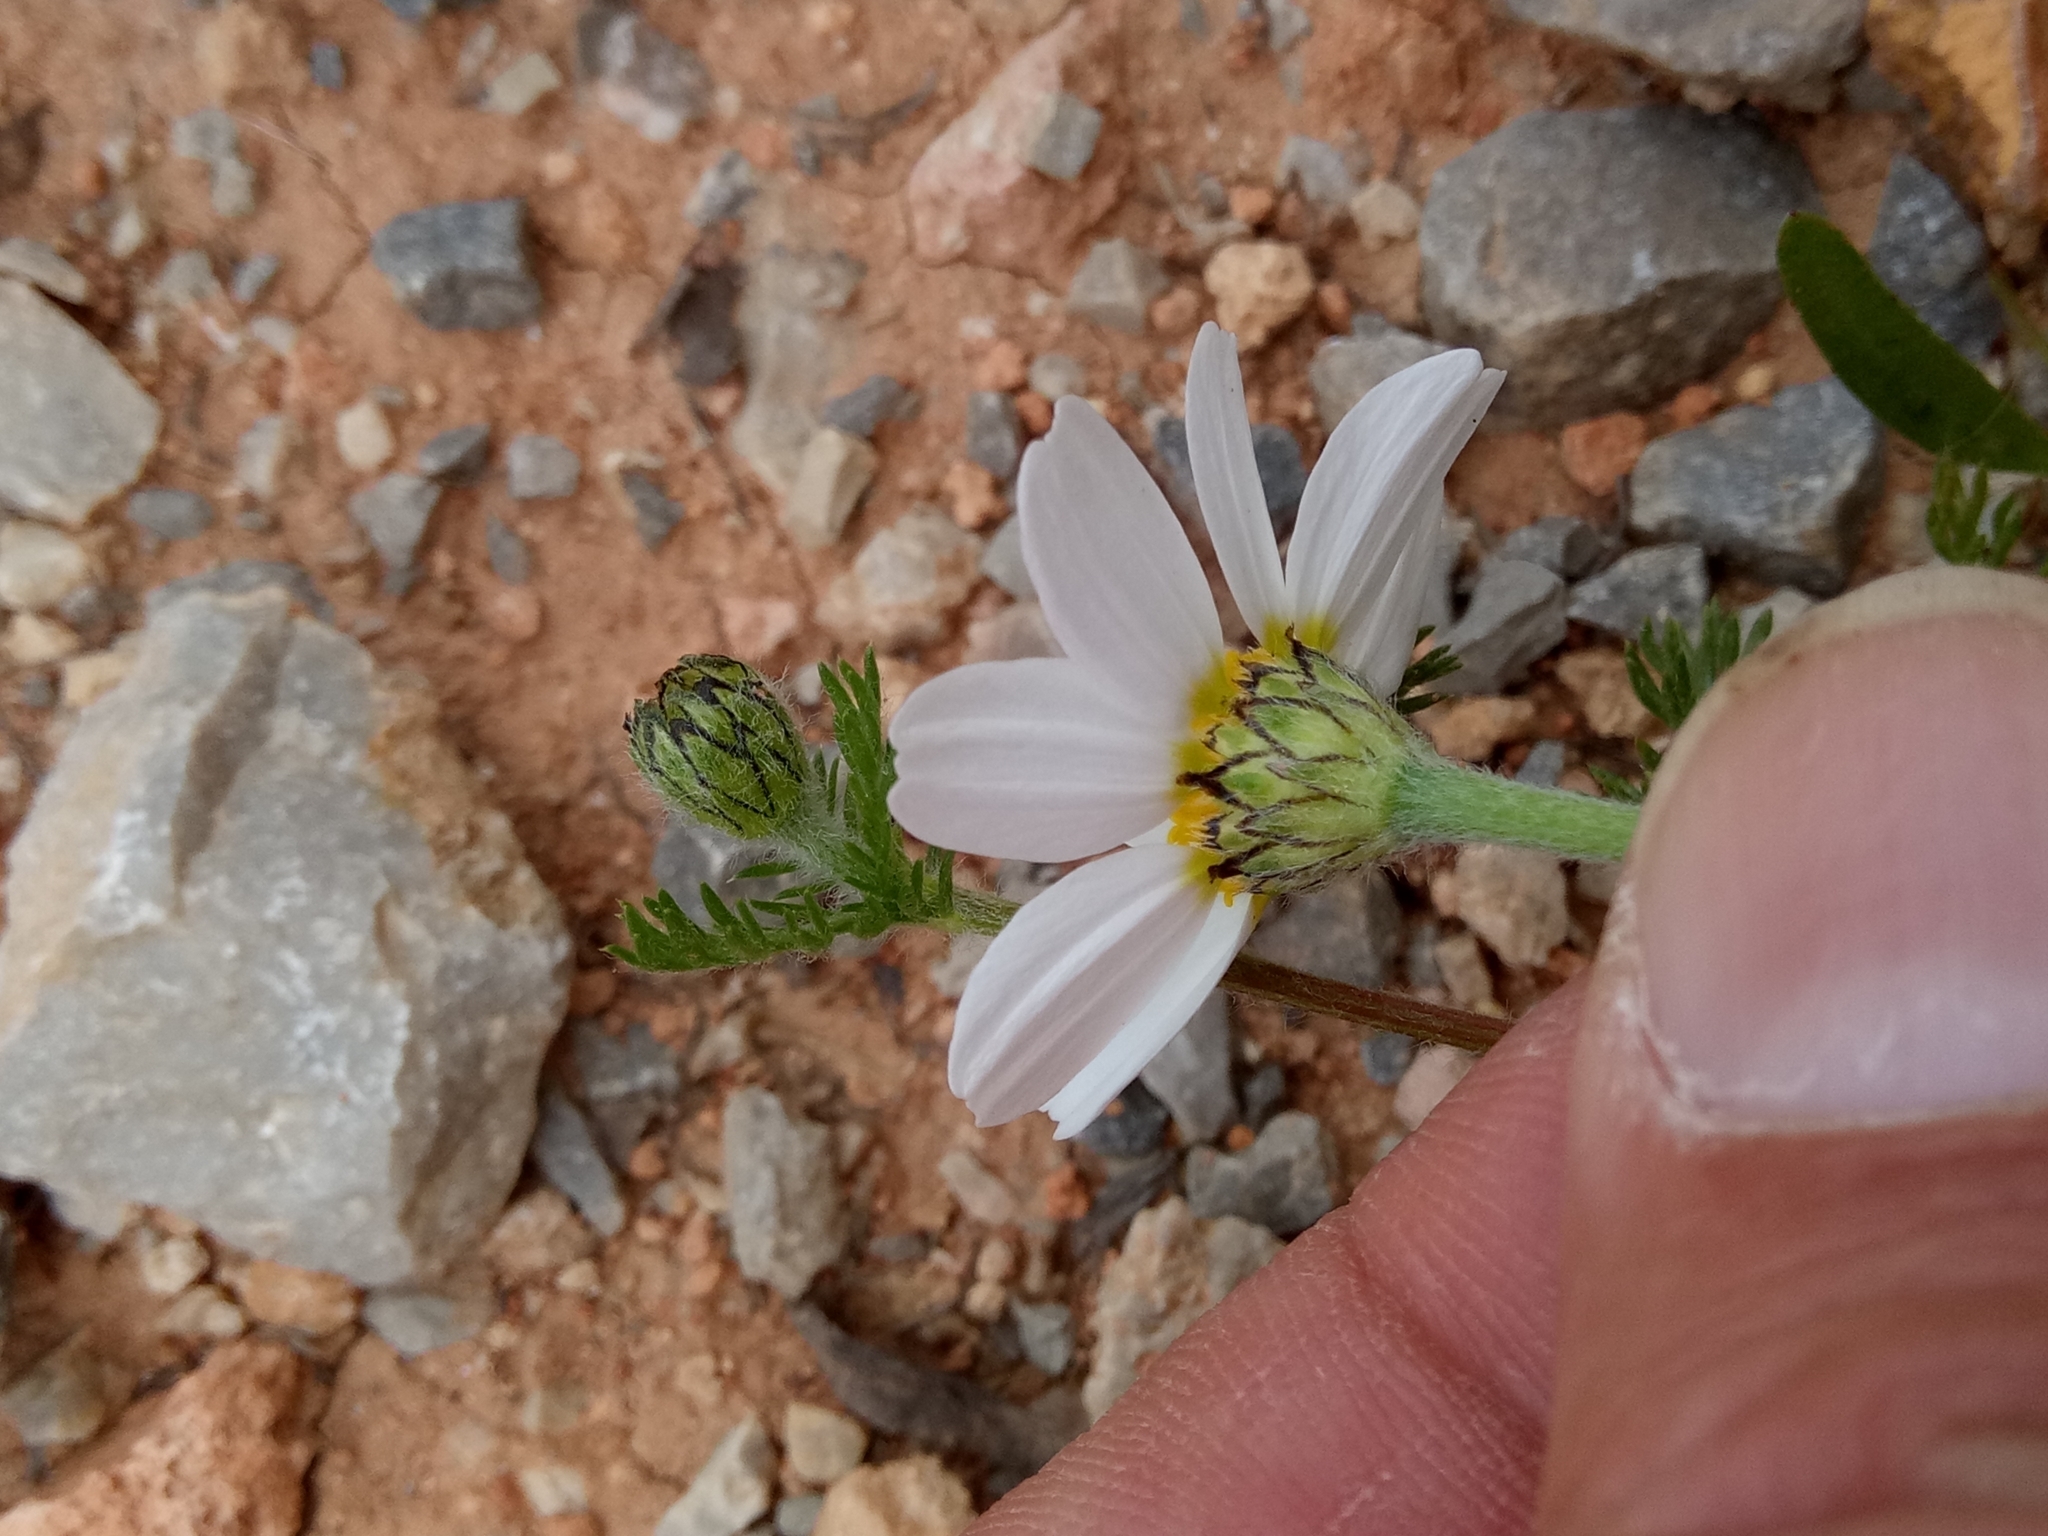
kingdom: Plantae
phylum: Tracheophyta
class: Magnoliopsida
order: Asterales
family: Asteraceae
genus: Anacyclus
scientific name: Anacyclus clavatus
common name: Whitebuttons
